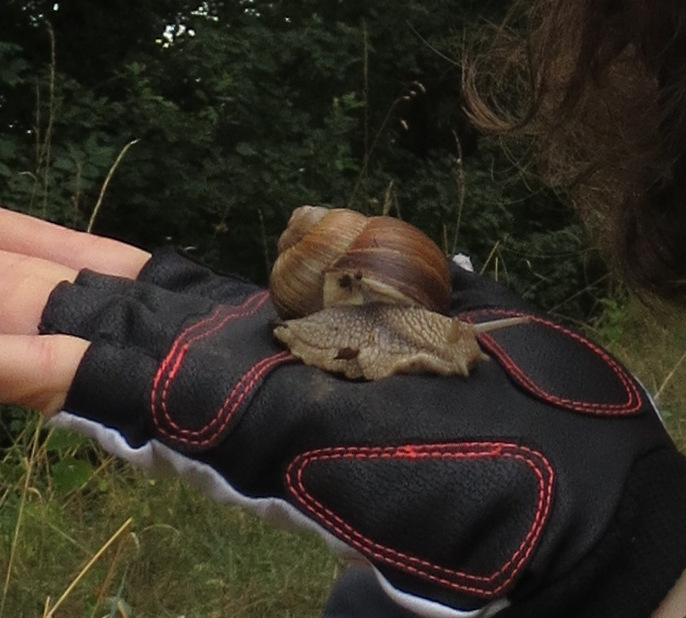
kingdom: Animalia
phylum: Mollusca
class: Gastropoda
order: Stylommatophora
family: Helicidae
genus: Helix
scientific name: Helix pomatia
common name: Roman snail
